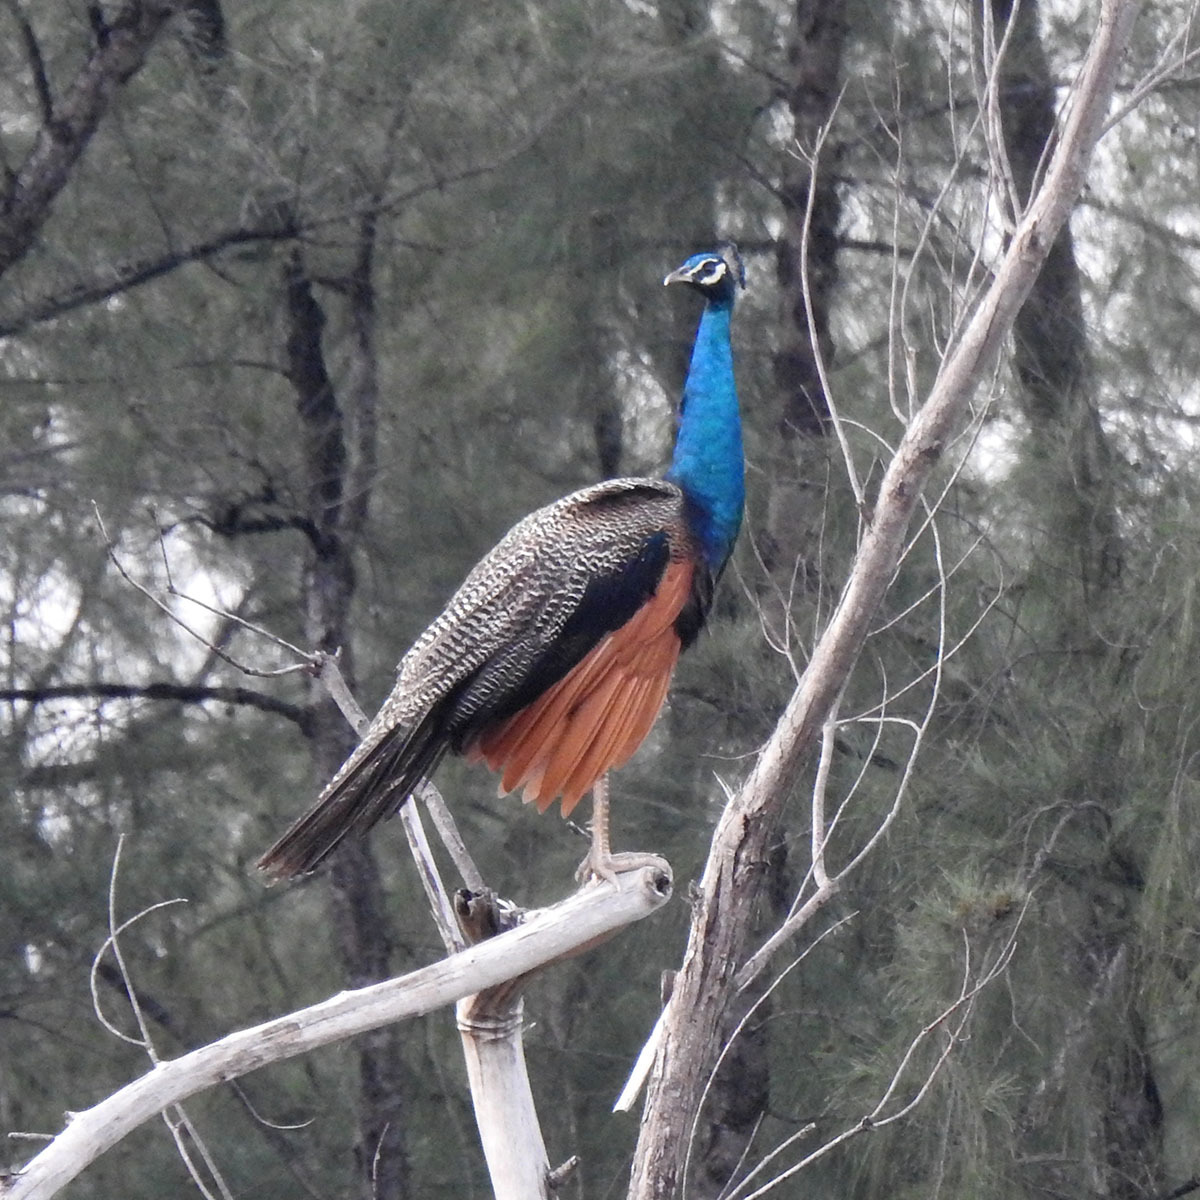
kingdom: Animalia
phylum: Chordata
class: Aves
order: Galliformes
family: Phasianidae
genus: Pavo
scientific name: Pavo cristatus
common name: Indian peafowl
